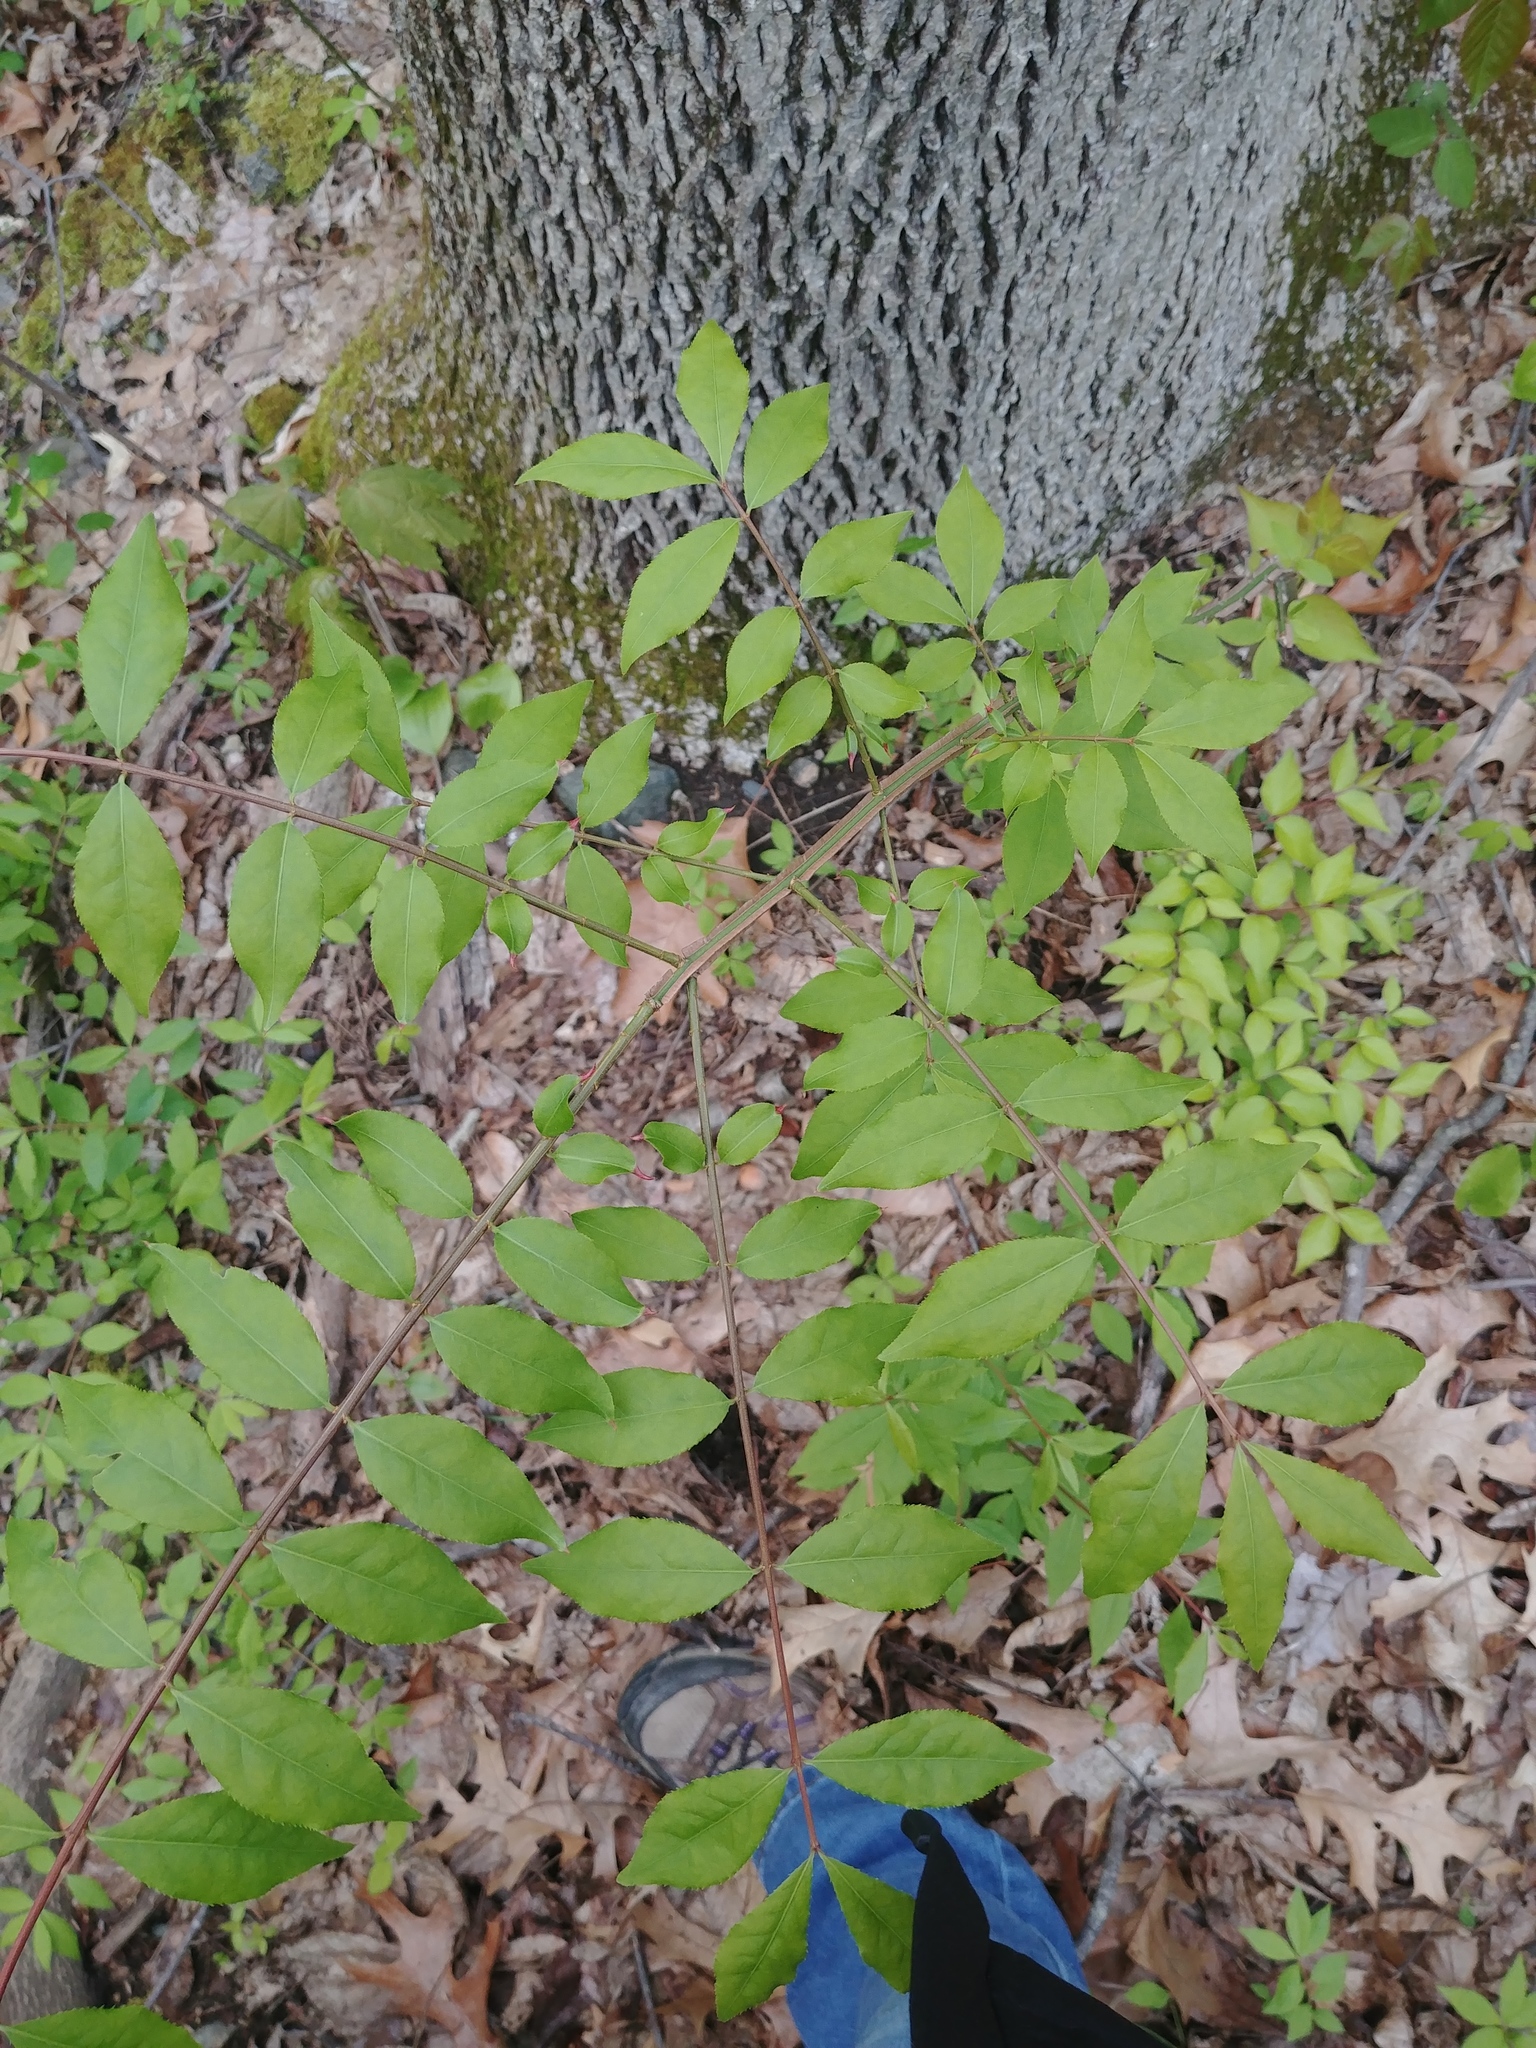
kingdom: Plantae
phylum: Tracheophyta
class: Magnoliopsida
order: Celastrales
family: Celastraceae
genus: Euonymus
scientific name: Euonymus alatus
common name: Winged euonymus
